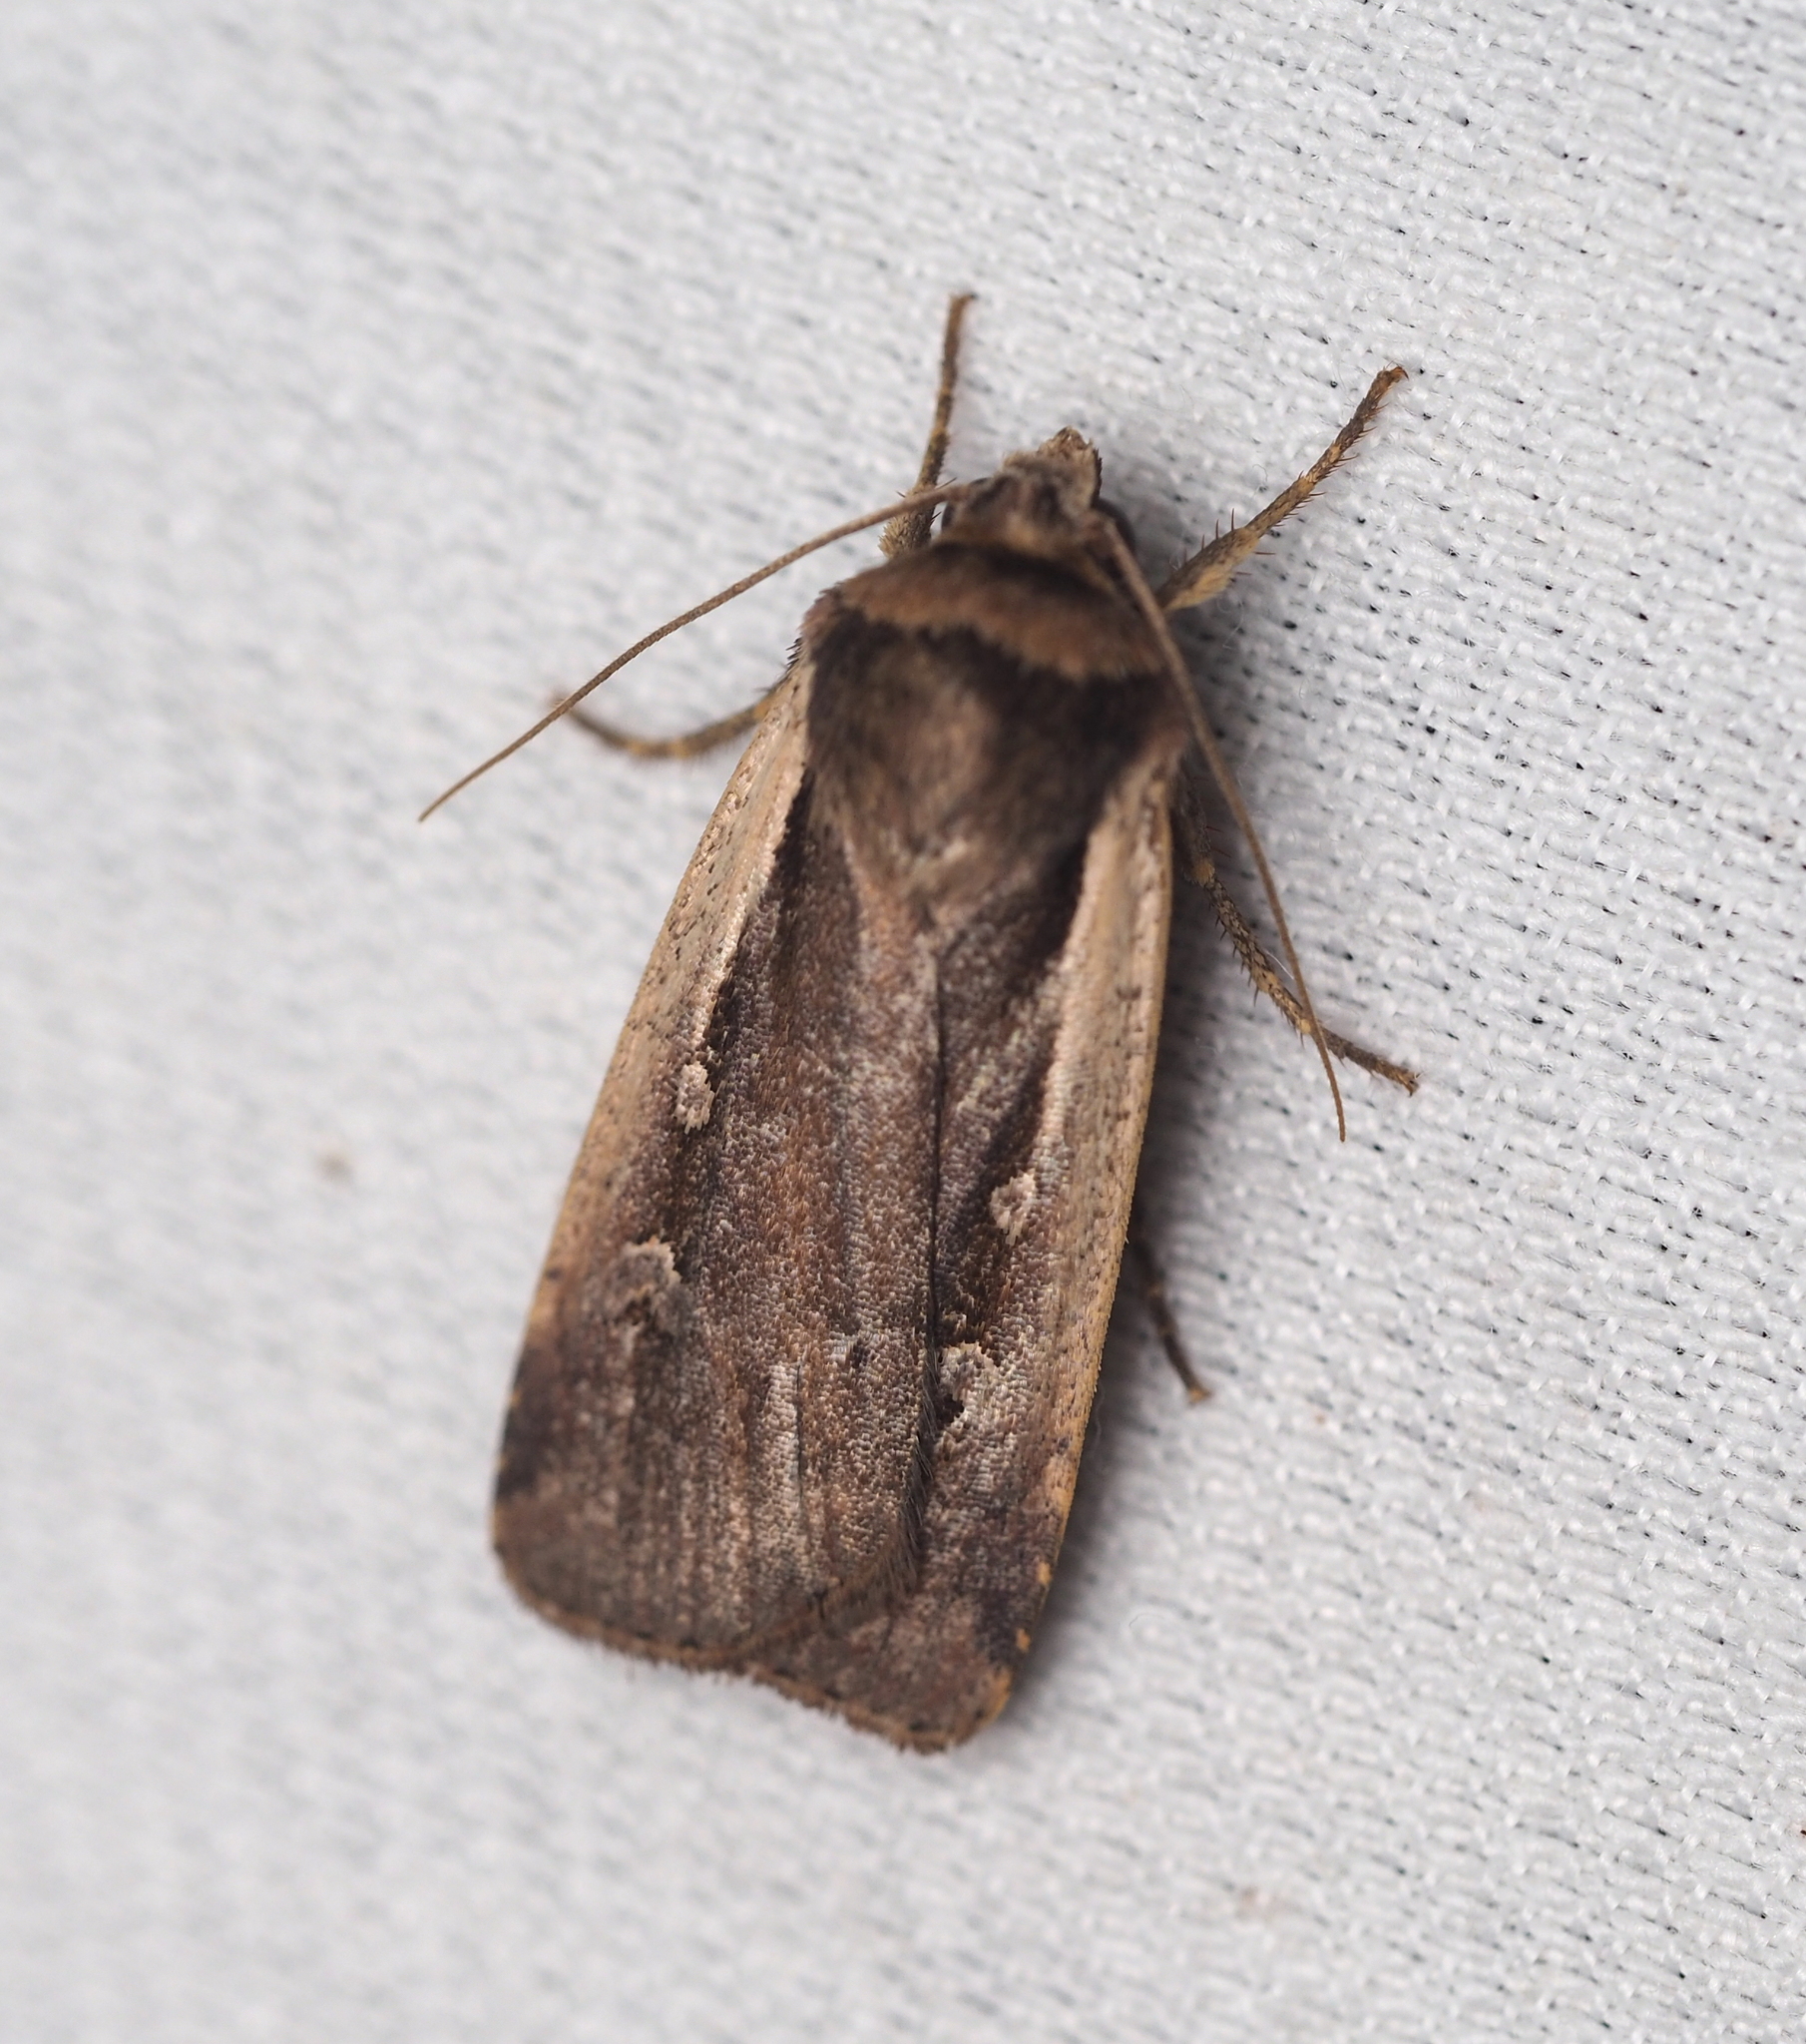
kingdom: Animalia
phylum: Arthropoda
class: Insecta
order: Lepidoptera
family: Noctuidae
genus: Ochropleura
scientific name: Ochropleura plecta
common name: Flame shoulder
